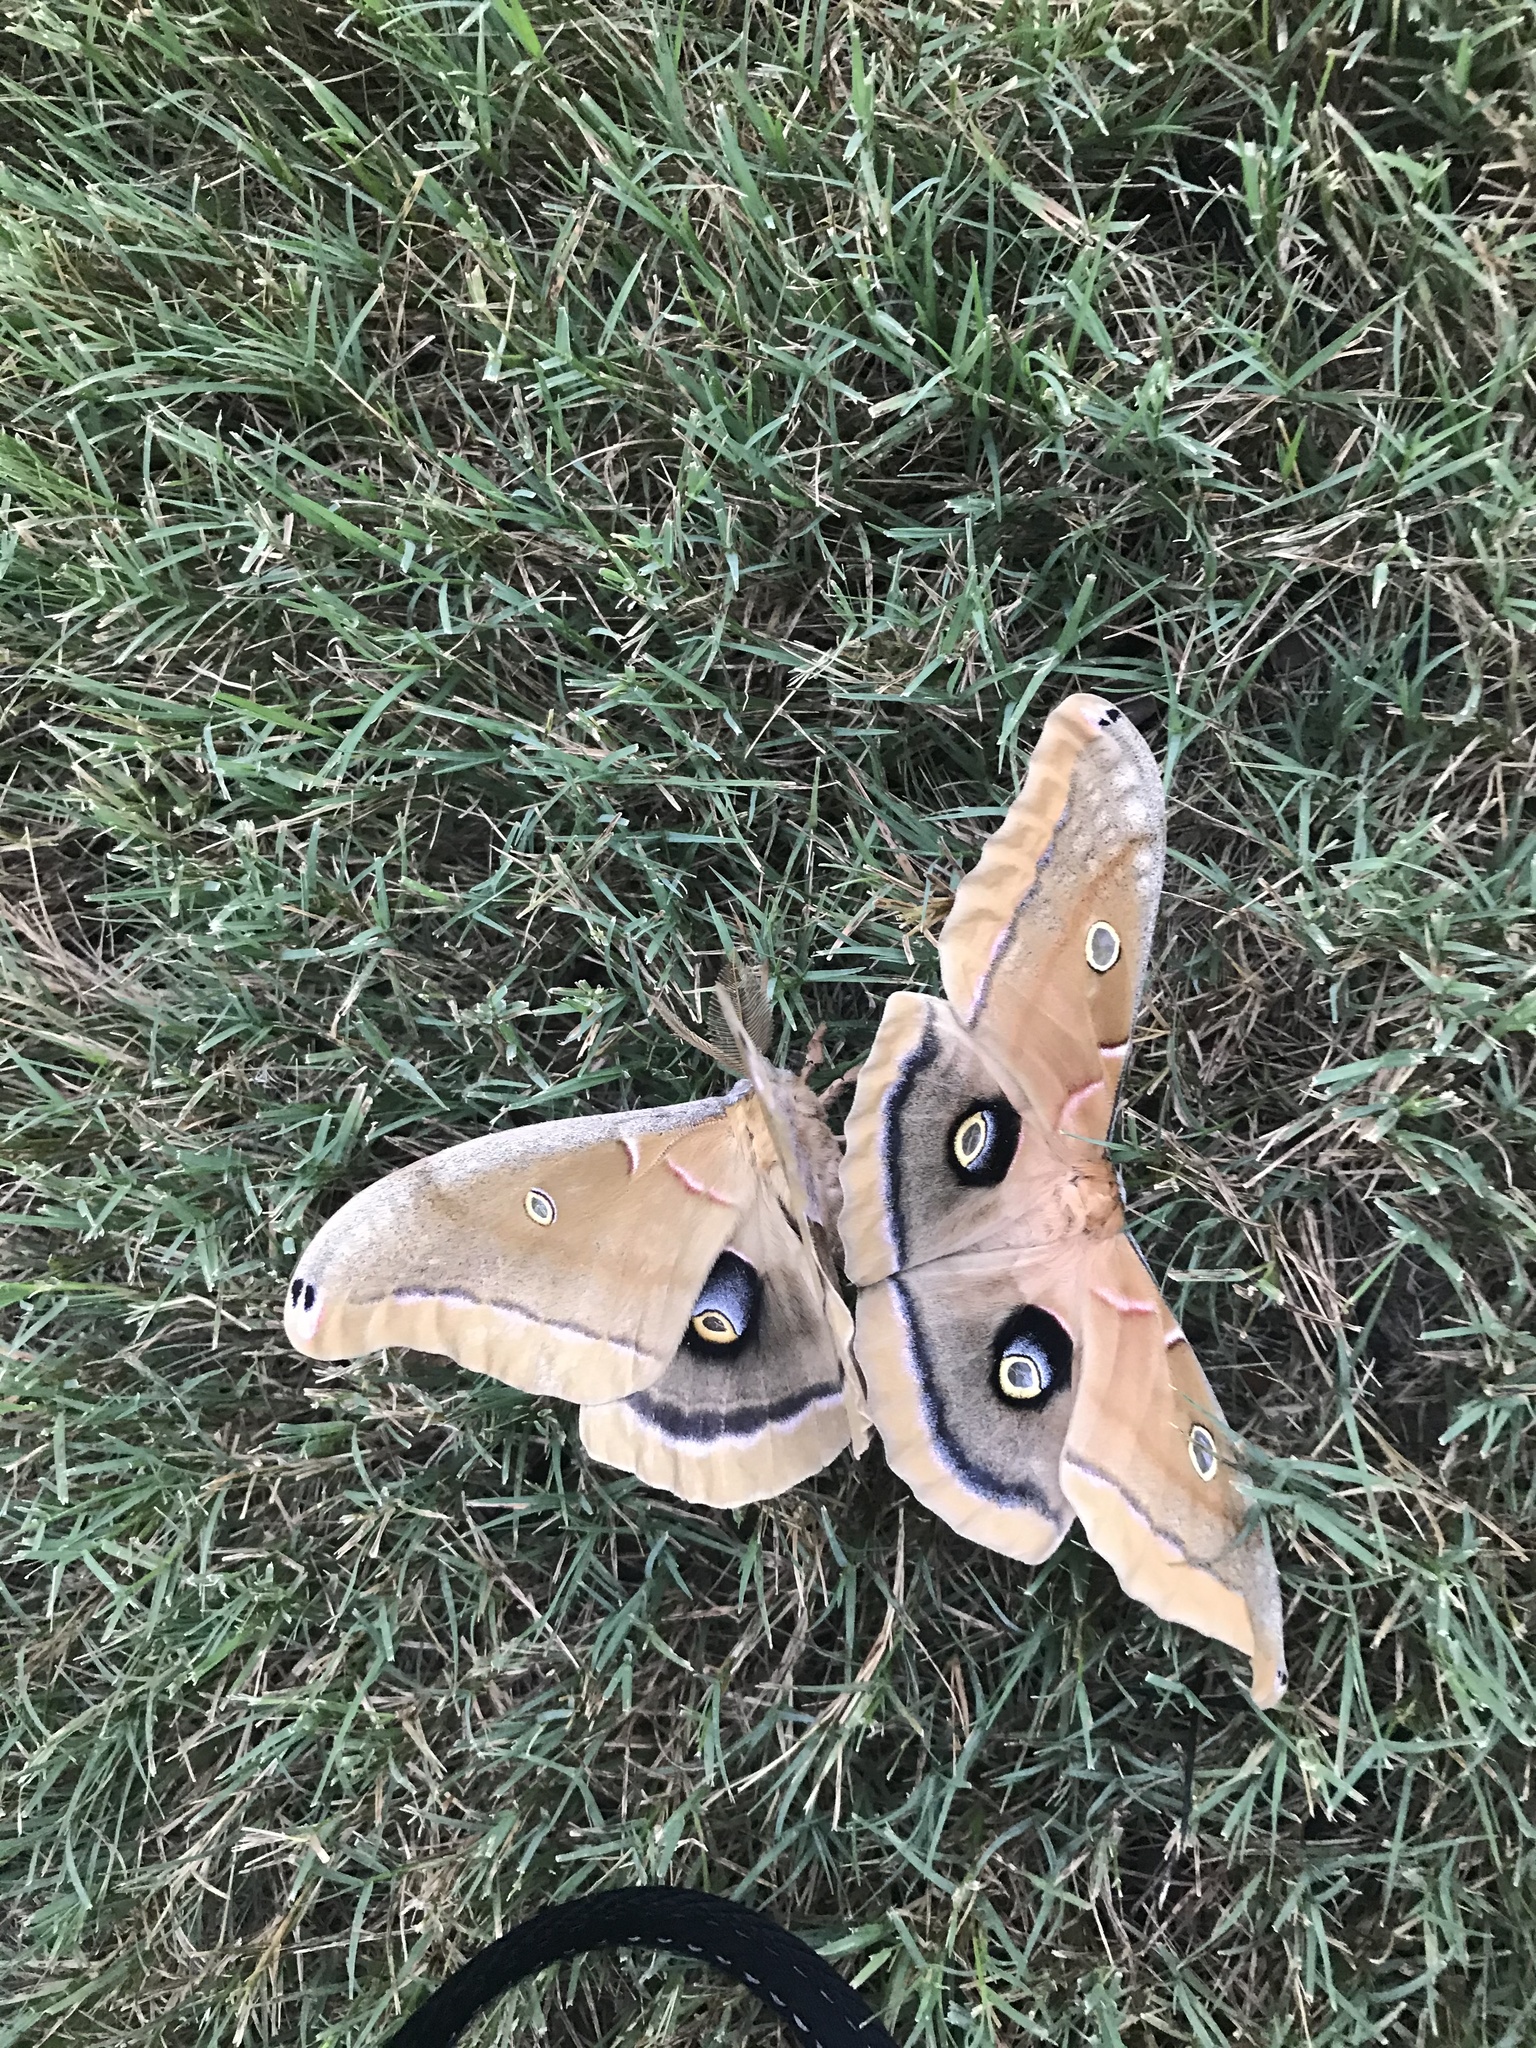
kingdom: Animalia
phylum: Arthropoda
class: Insecta
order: Lepidoptera
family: Saturniidae
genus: Antheraea
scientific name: Antheraea polyphemus
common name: Polyphemus moth
